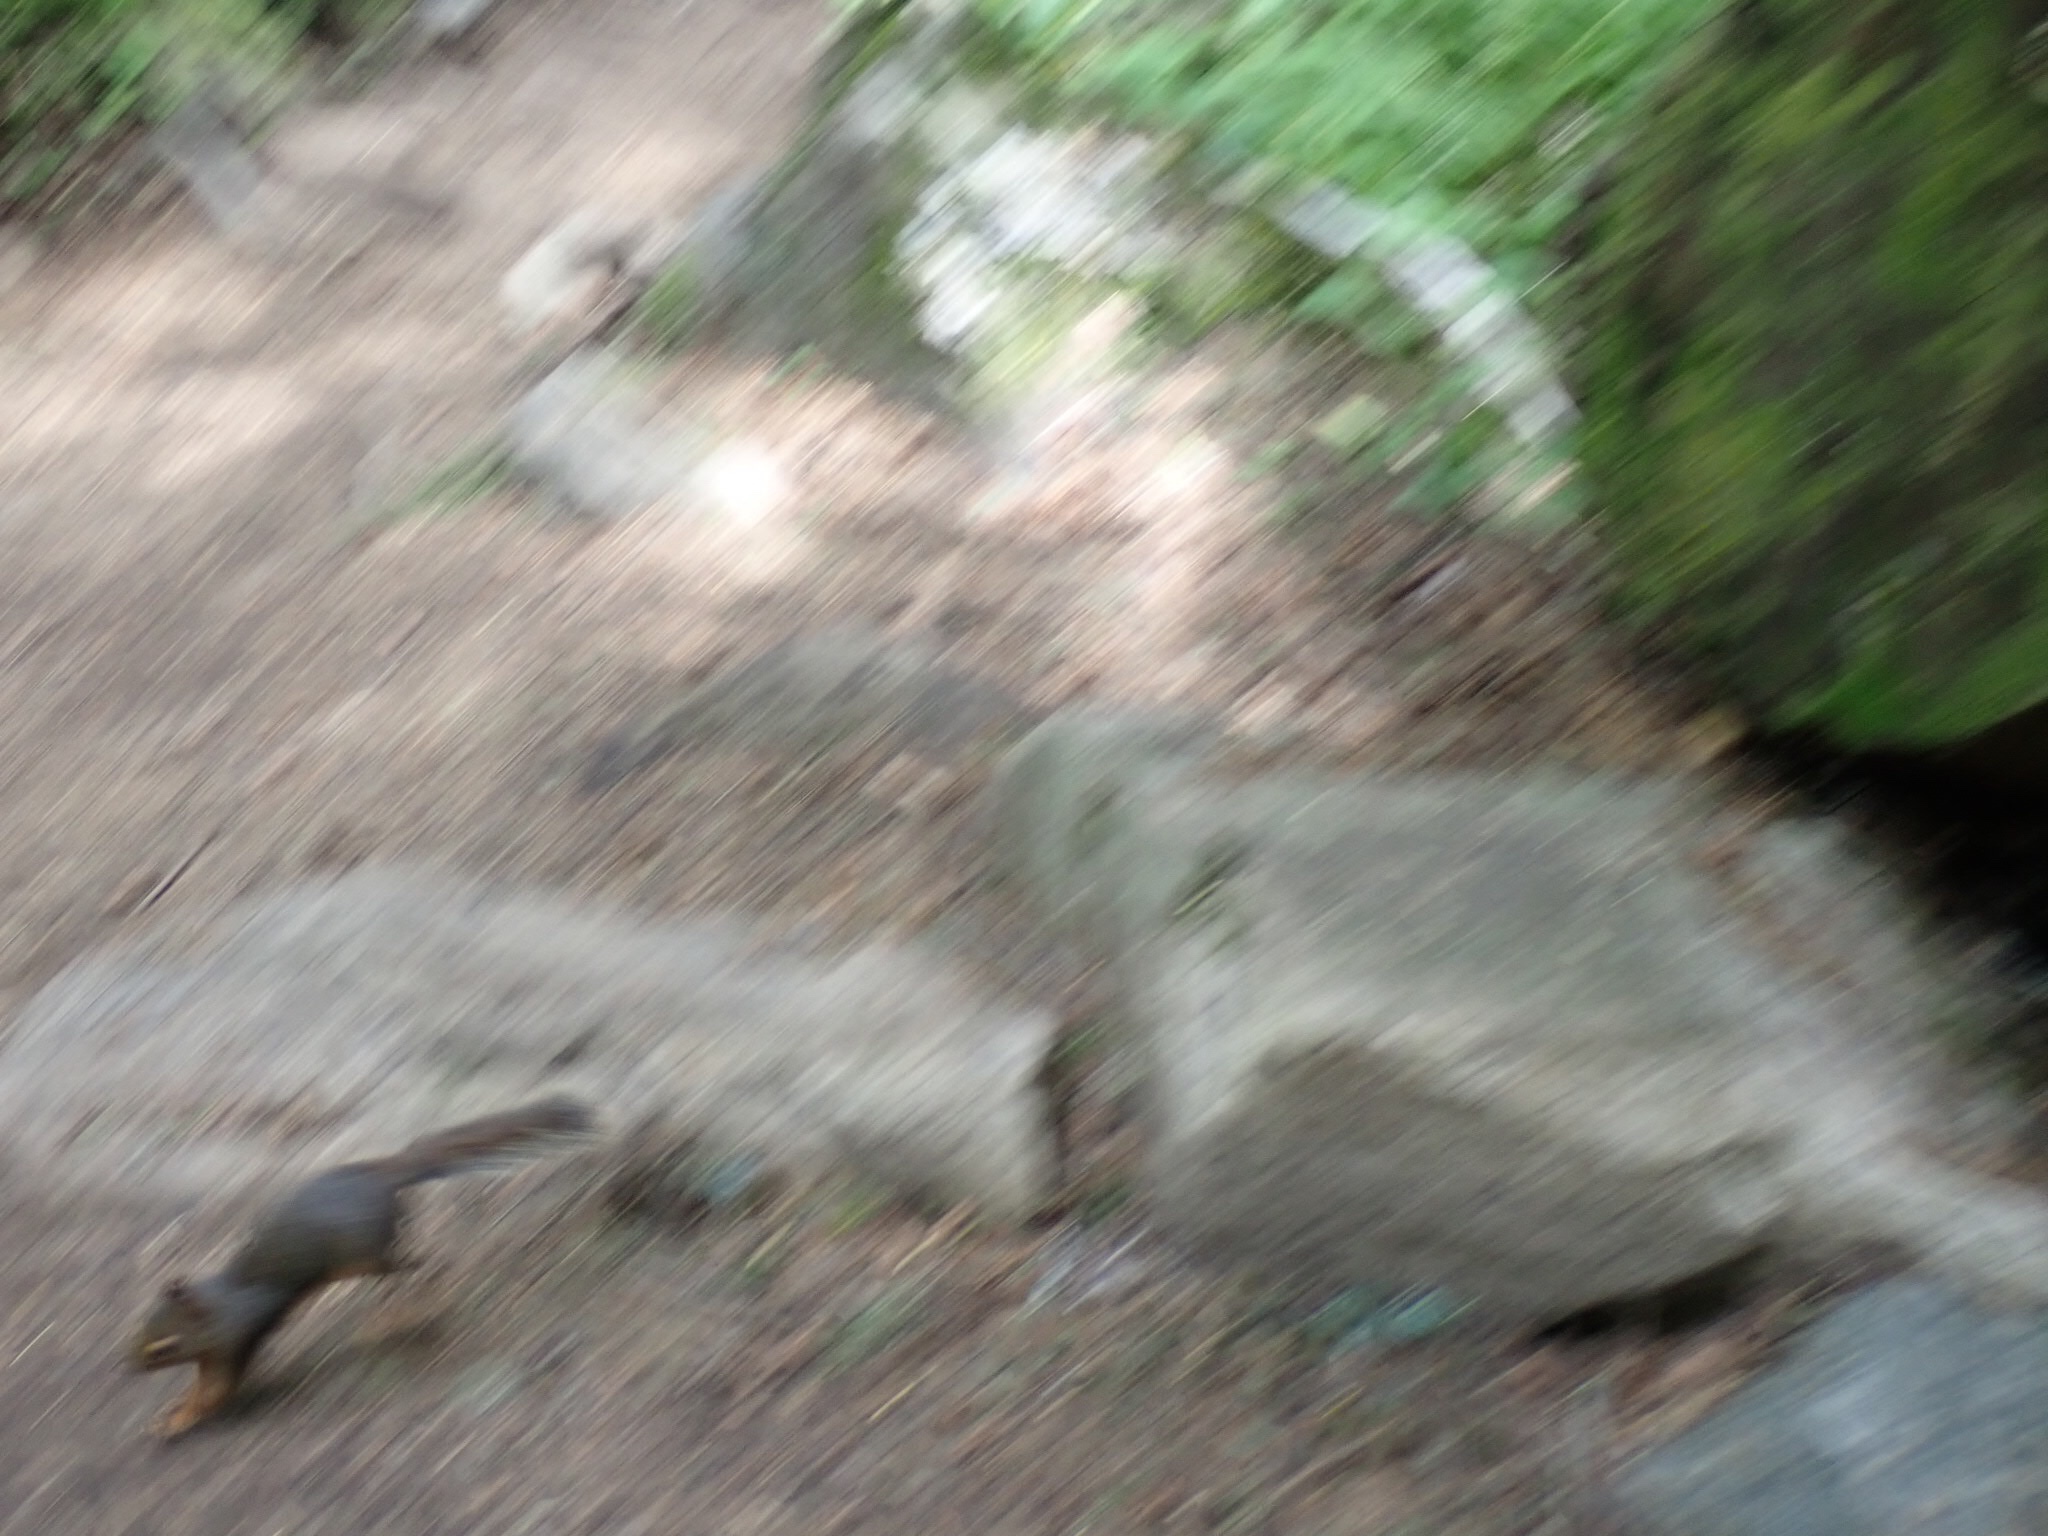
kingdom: Animalia
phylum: Chordata
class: Mammalia
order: Rodentia
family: Sciuridae
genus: Tamiasciurus
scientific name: Tamiasciurus douglasii
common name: Douglas's squirrel
